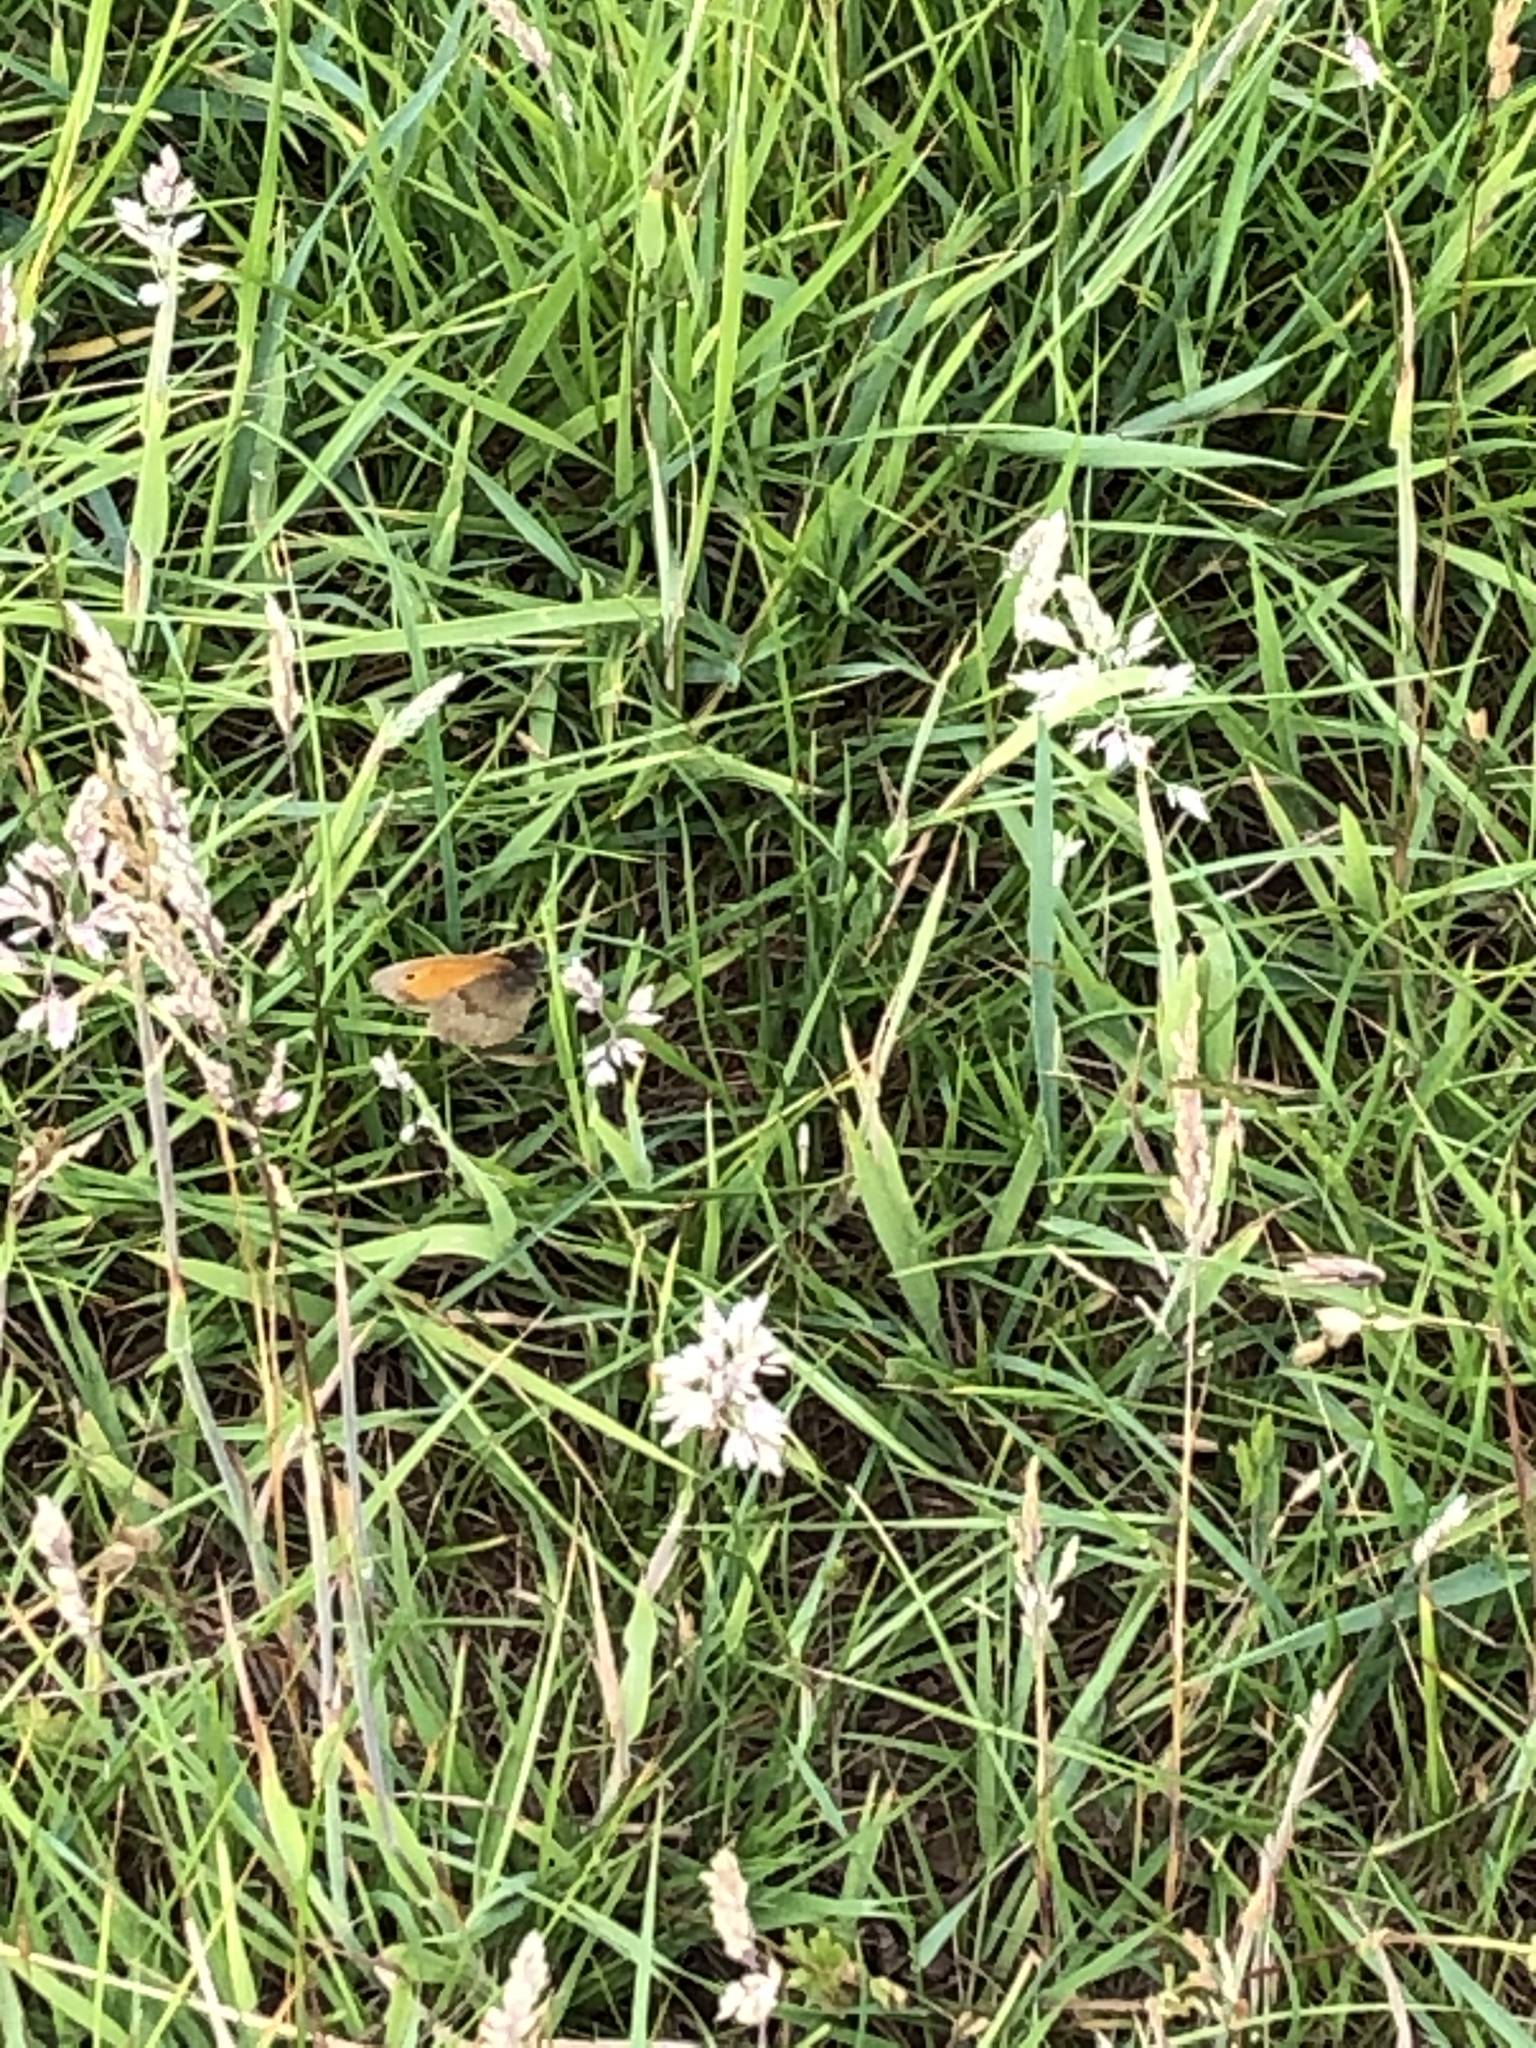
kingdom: Animalia
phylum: Arthropoda
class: Insecta
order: Lepidoptera
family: Nymphalidae
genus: Maniola
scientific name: Maniola jurtina
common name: Meadow brown
